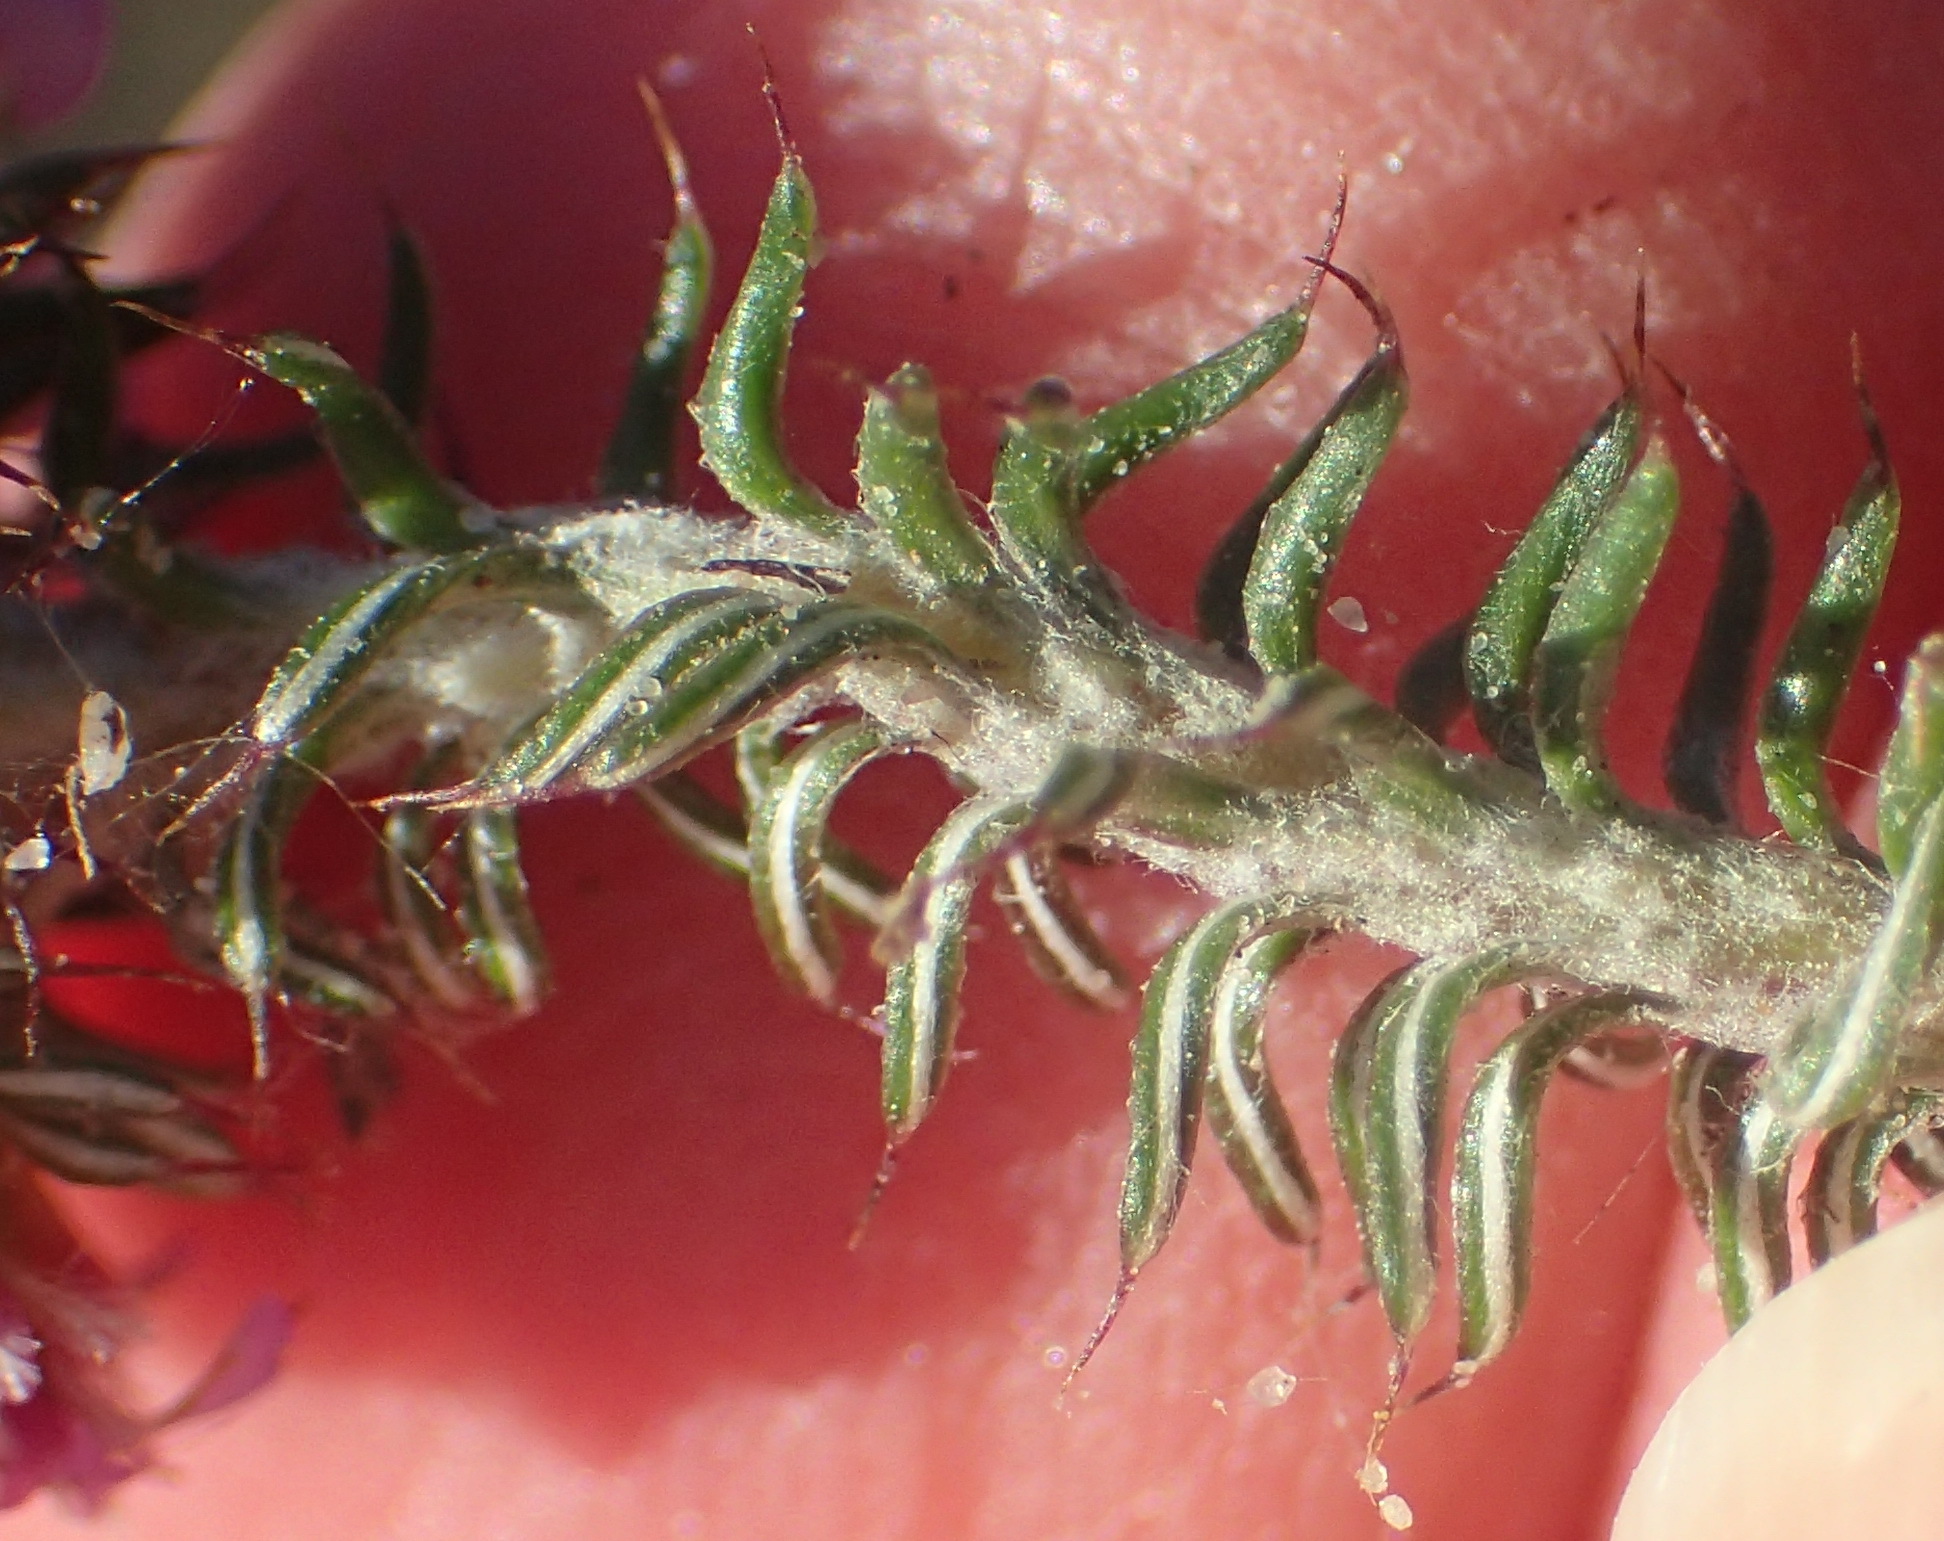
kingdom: Plantae
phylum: Tracheophyta
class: Magnoliopsida
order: Asterales
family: Asteraceae
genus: Disparago
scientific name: Disparago tortilis
